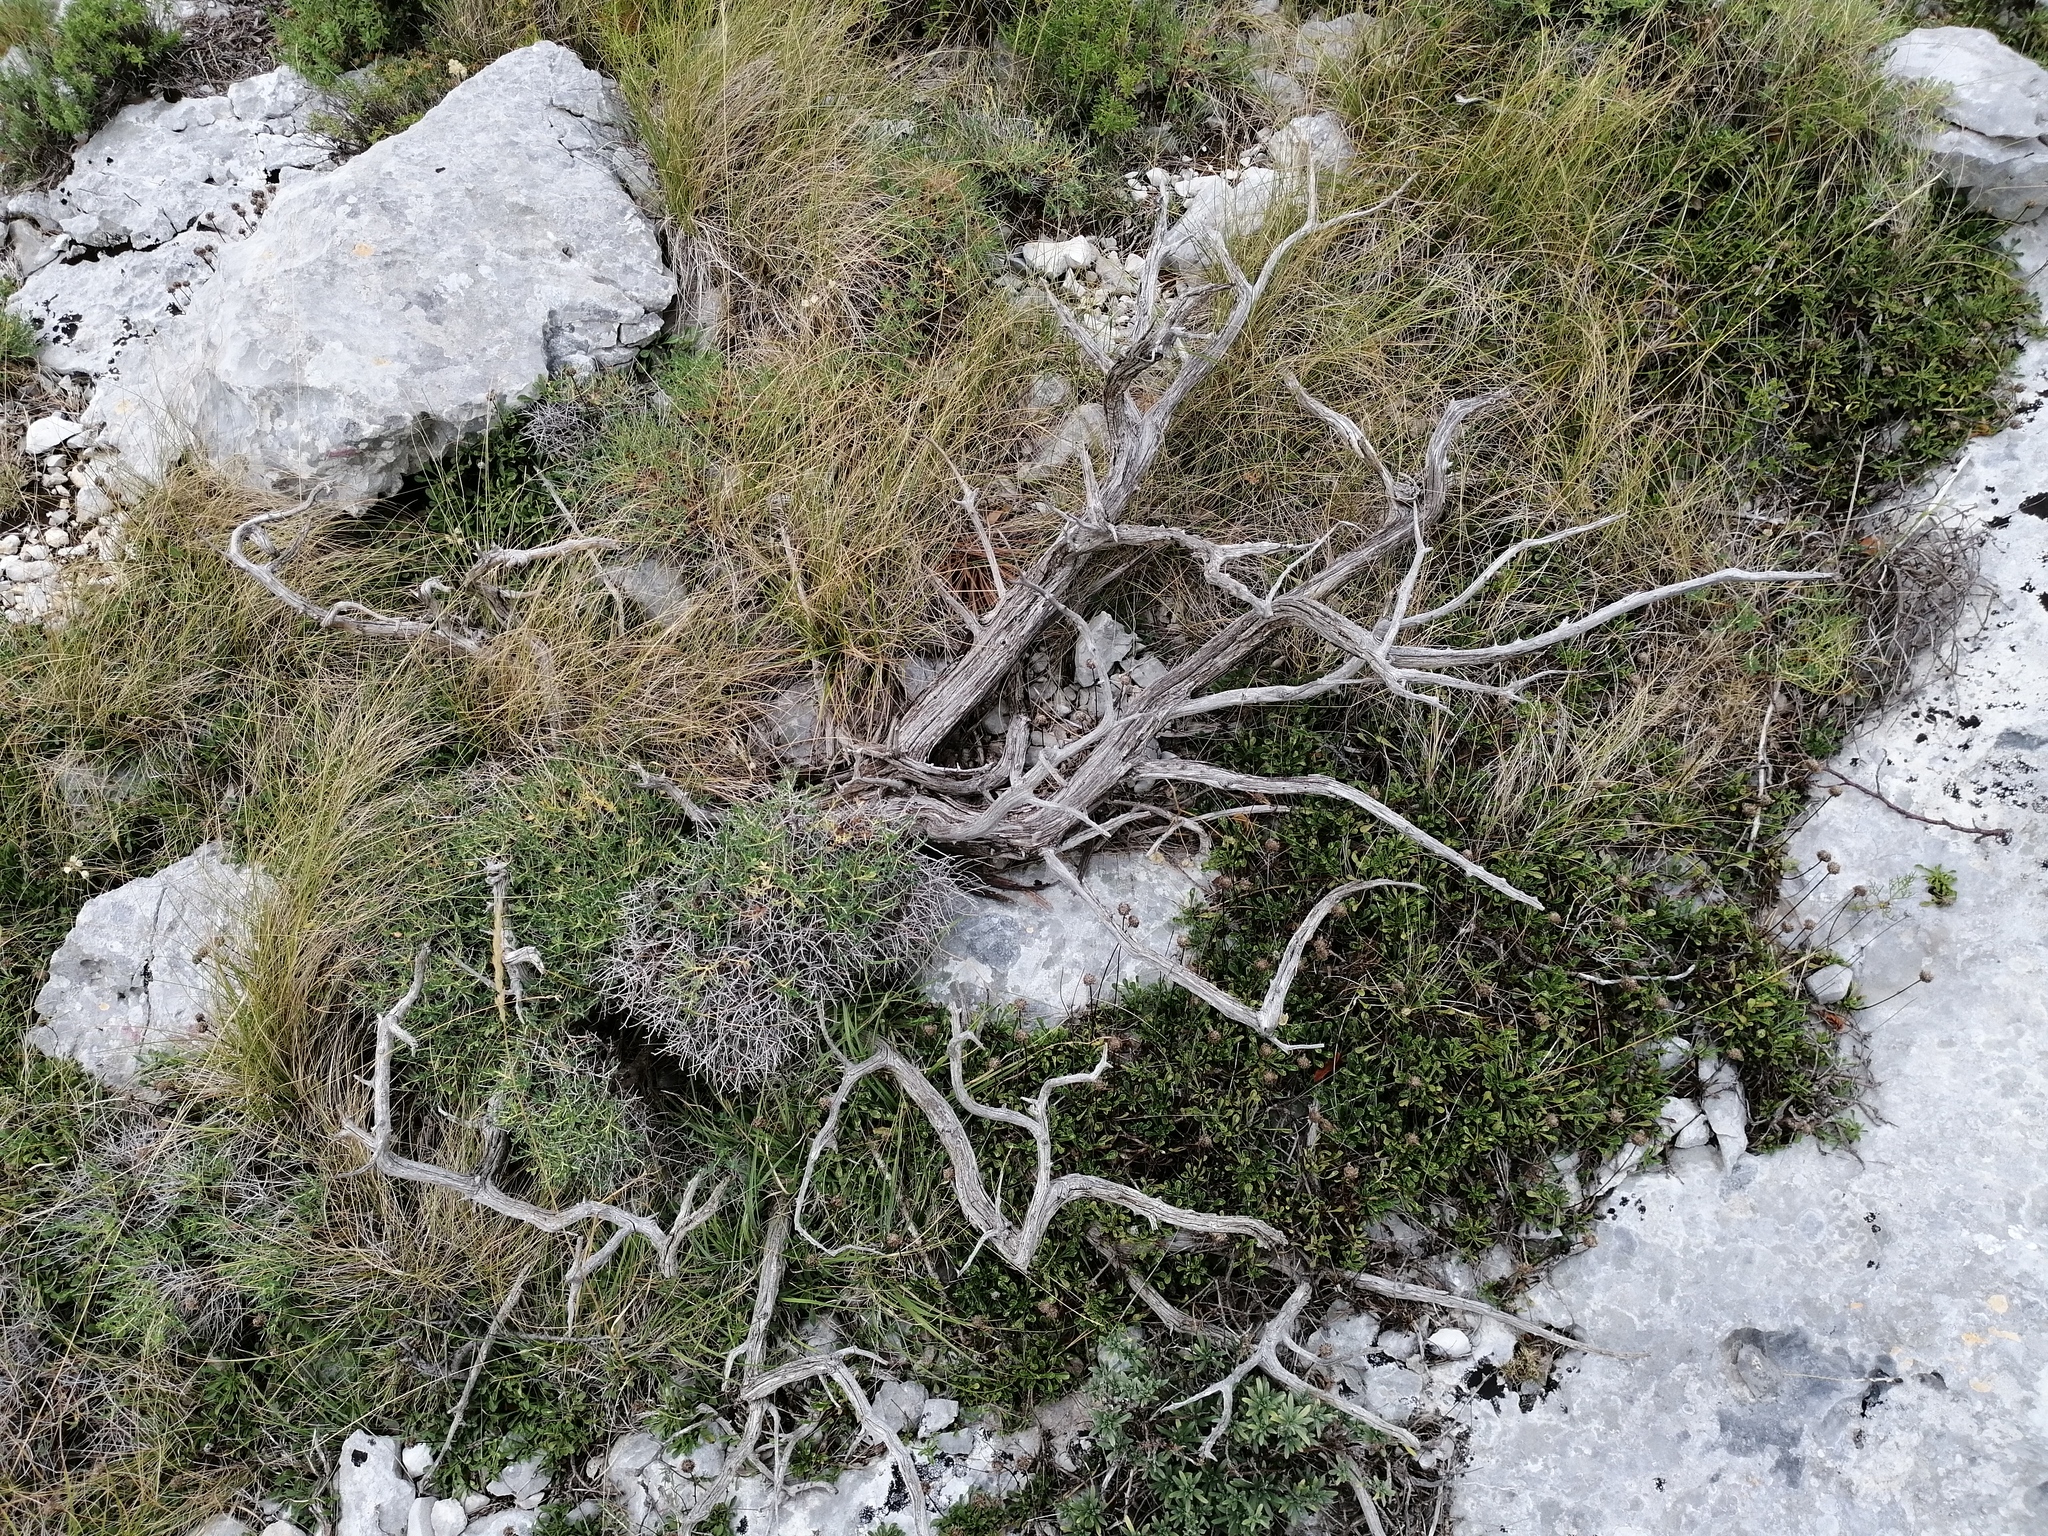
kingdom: Plantae
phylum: Tracheophyta
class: Magnoliopsida
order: Malpighiales
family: Euphorbiaceae
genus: Euphorbia
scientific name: Euphorbia spinosa
